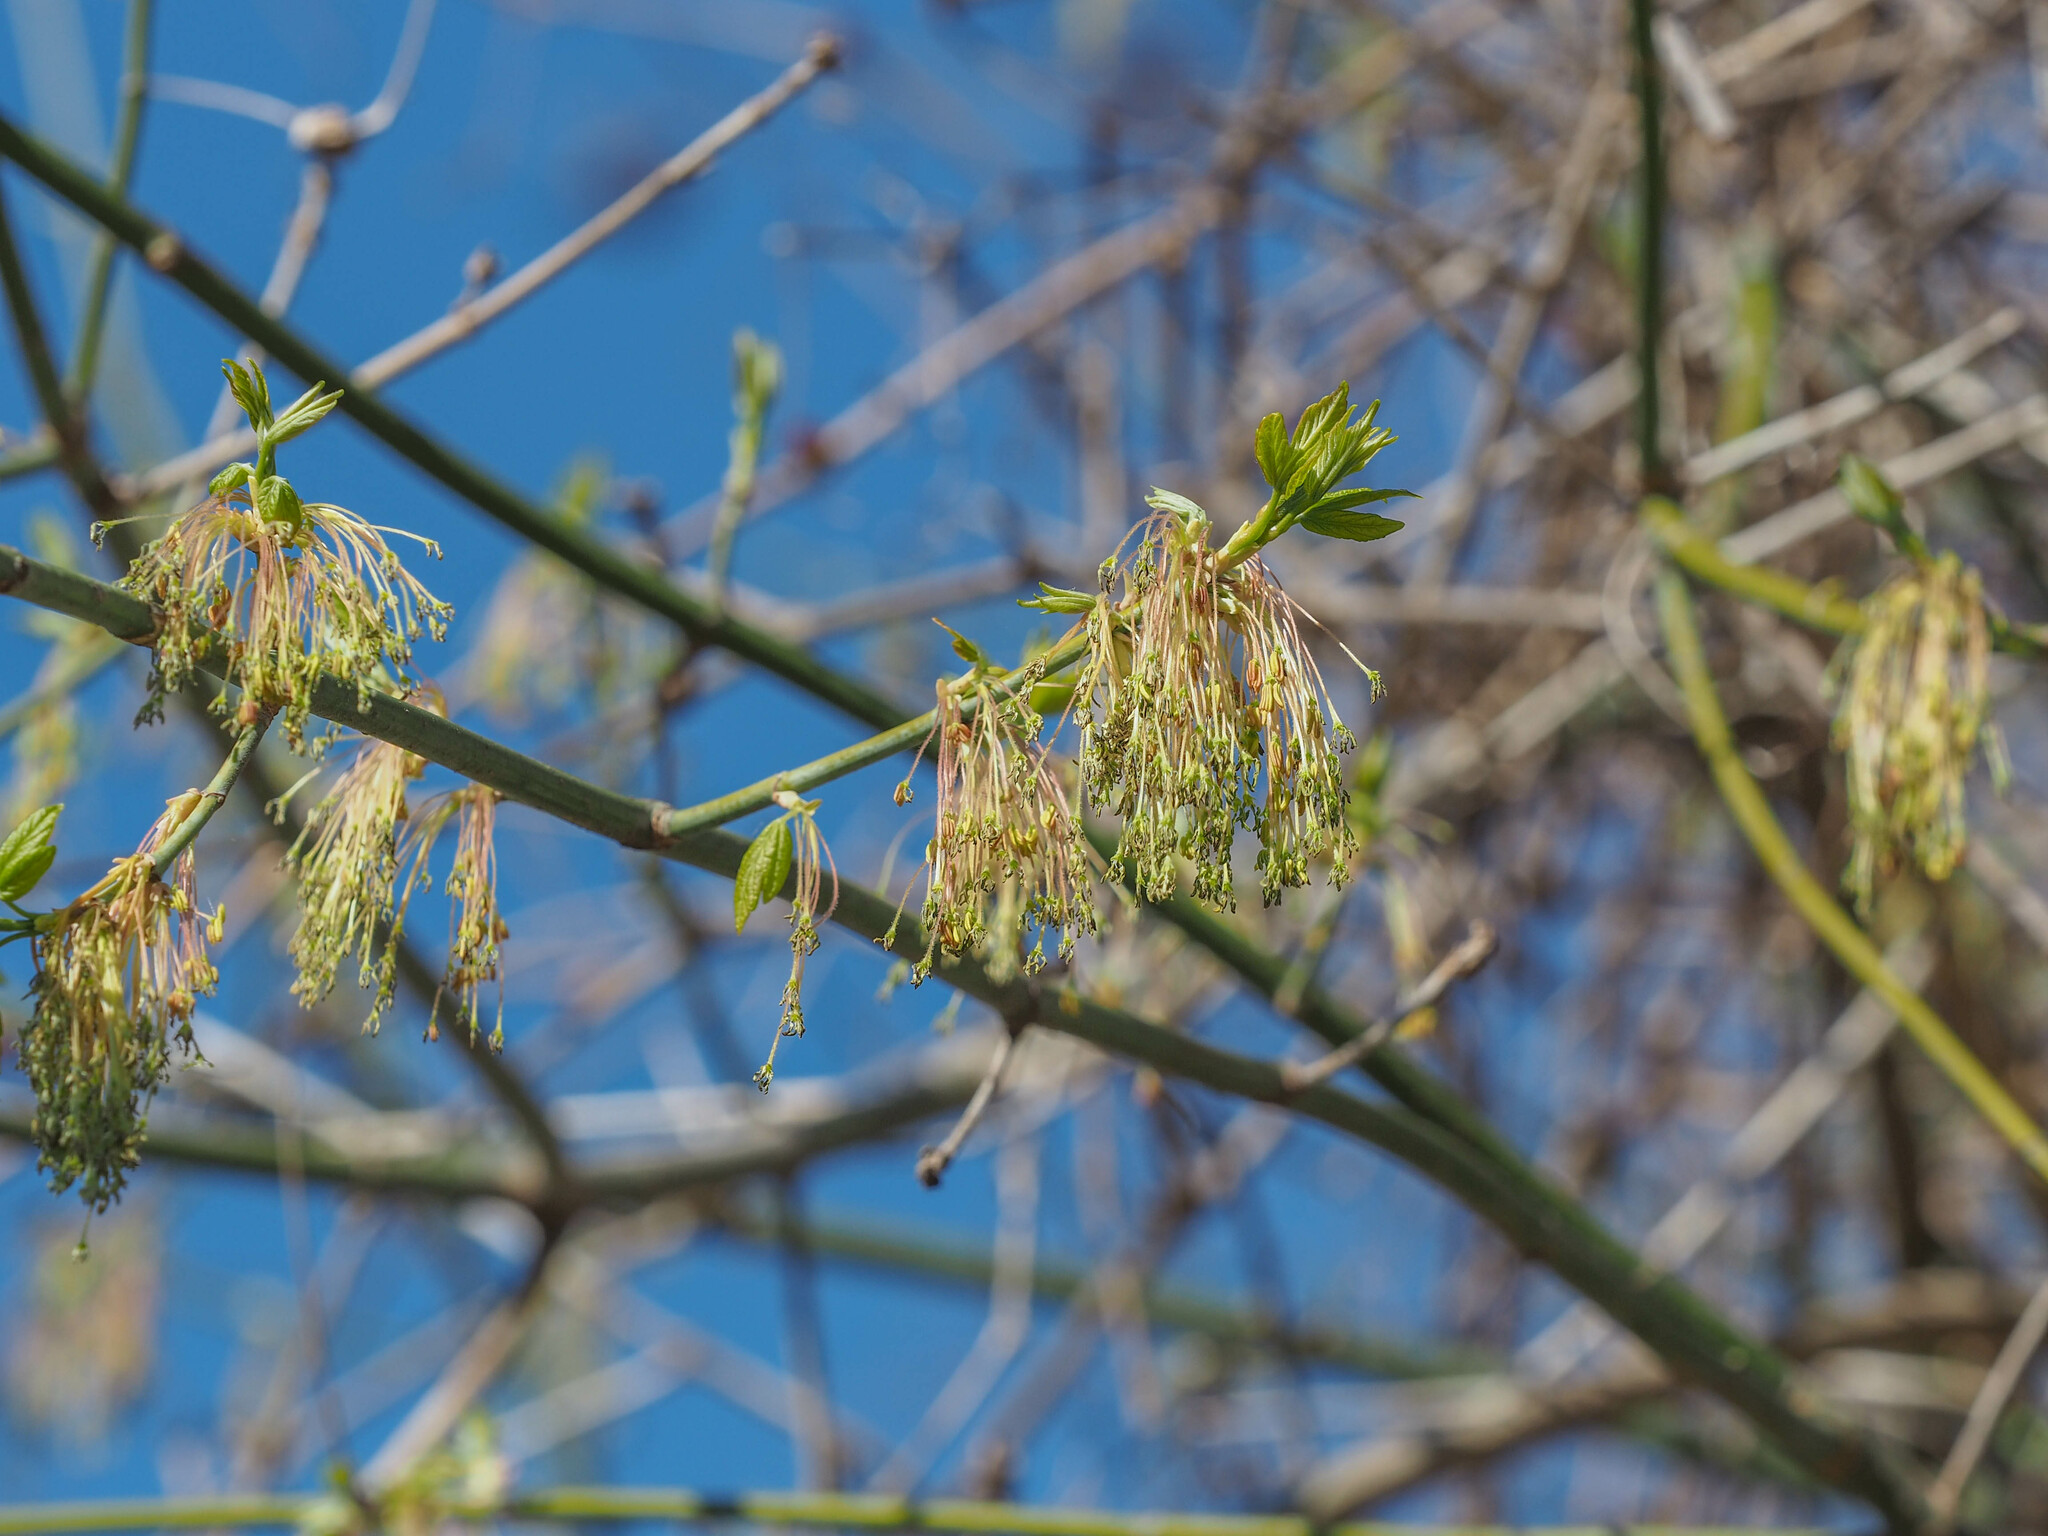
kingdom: Plantae
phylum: Tracheophyta
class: Magnoliopsida
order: Sapindales
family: Sapindaceae
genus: Acer
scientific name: Acer negundo
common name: Ashleaf maple
